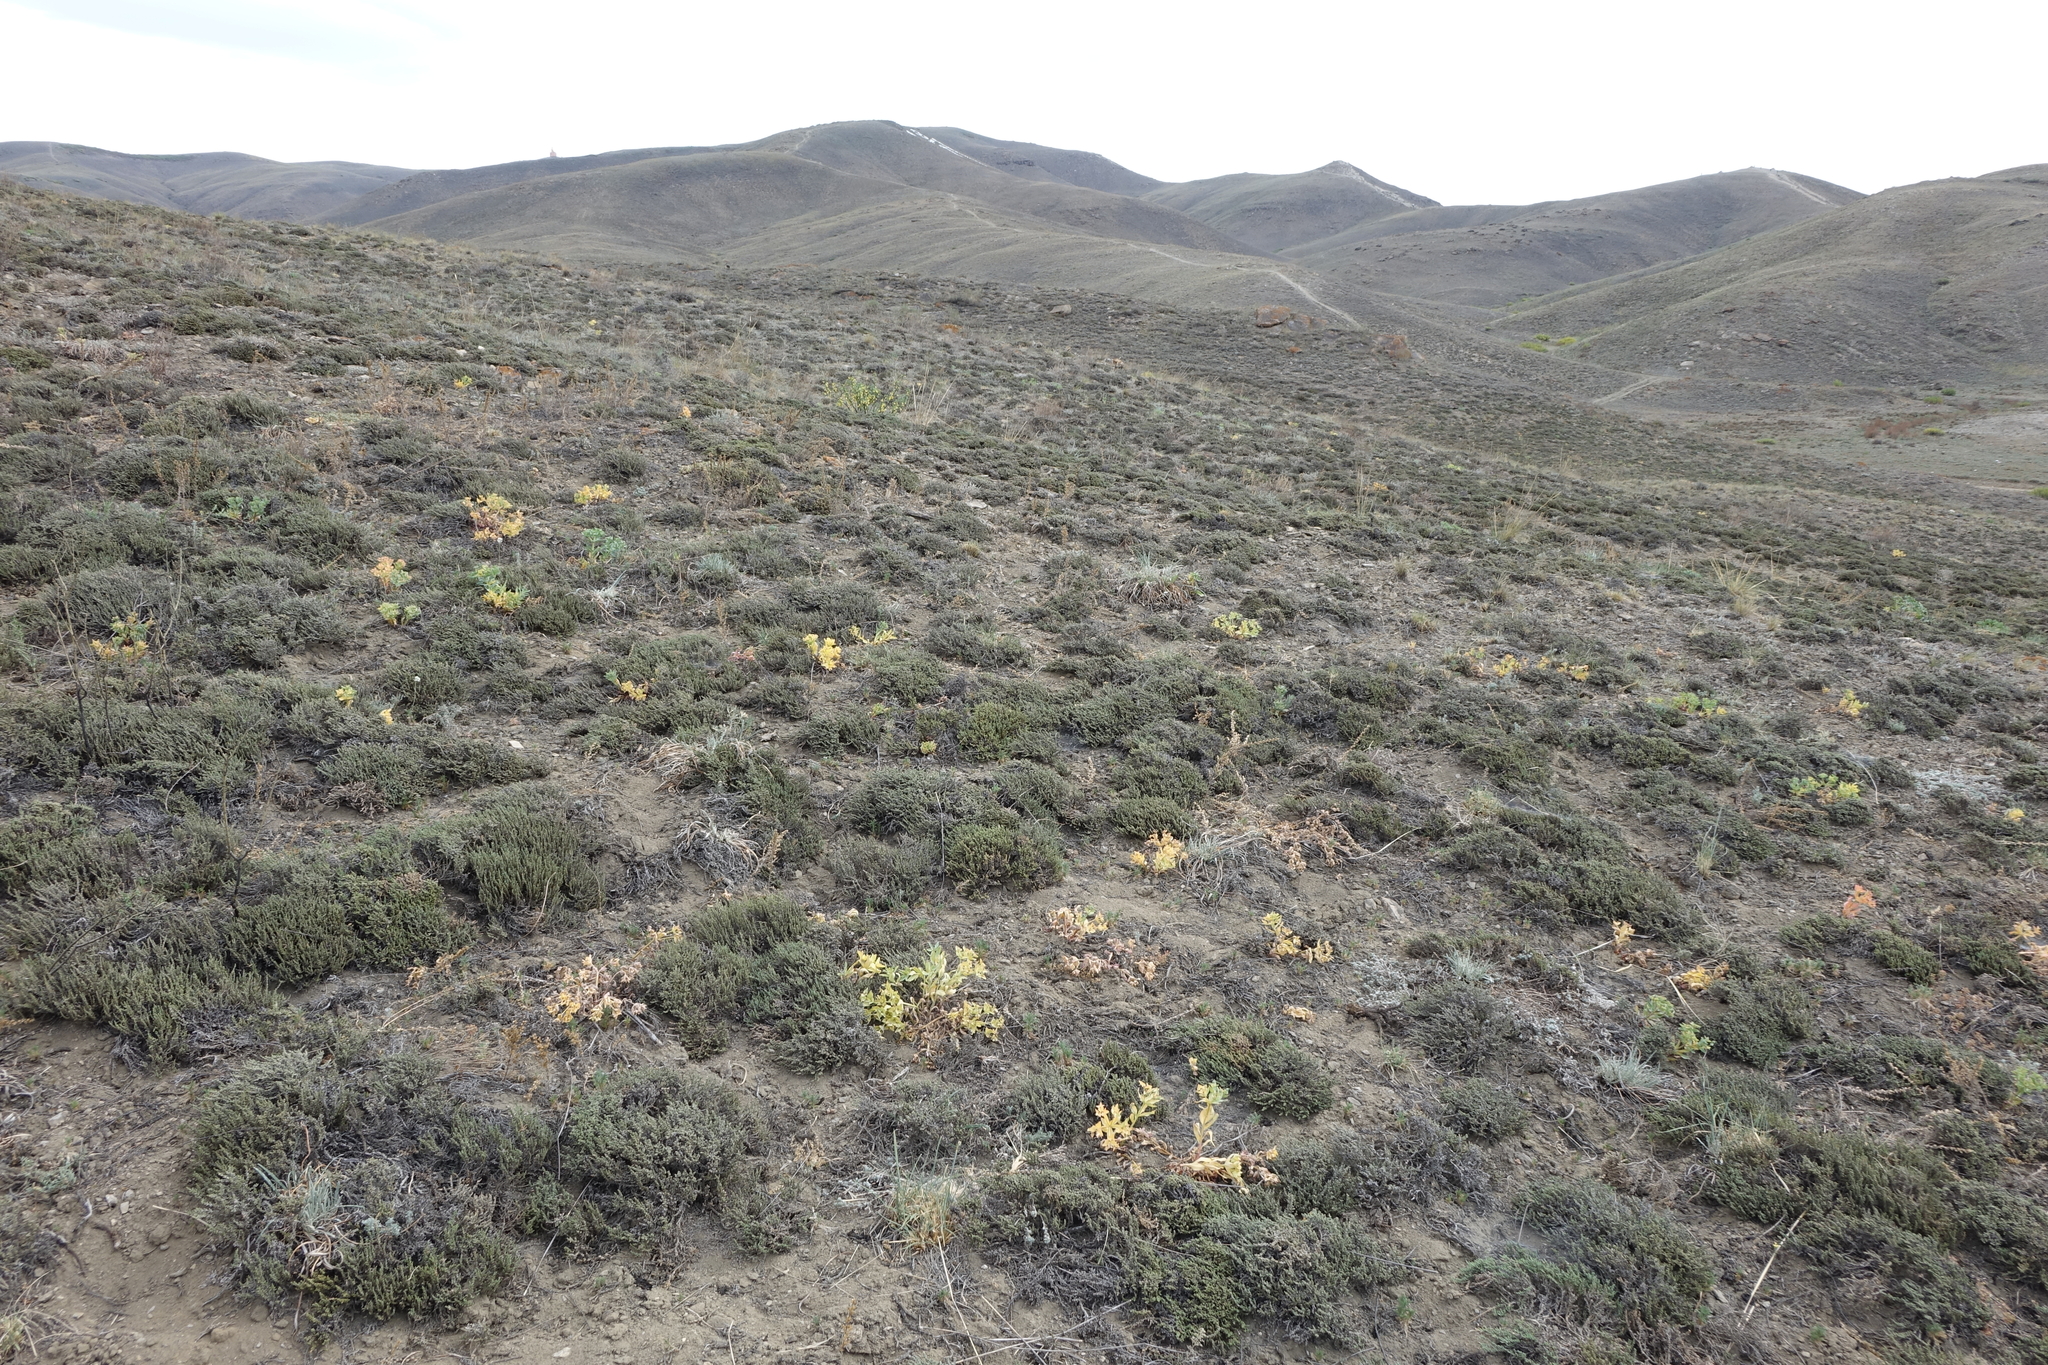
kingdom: Plantae
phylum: Tracheophyta
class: Magnoliopsida
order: Caryophyllales
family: Amaranthaceae
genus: Nanophyton
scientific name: Nanophyton grubovii
